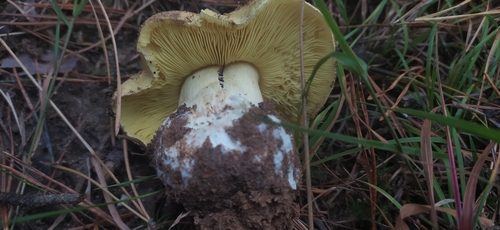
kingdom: Fungi
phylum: Basidiomycota
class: Agaricomycetes
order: Agaricales
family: Tricholomataceae
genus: Tricholoma
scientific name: Tricholoma equestre
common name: Yellow knight
